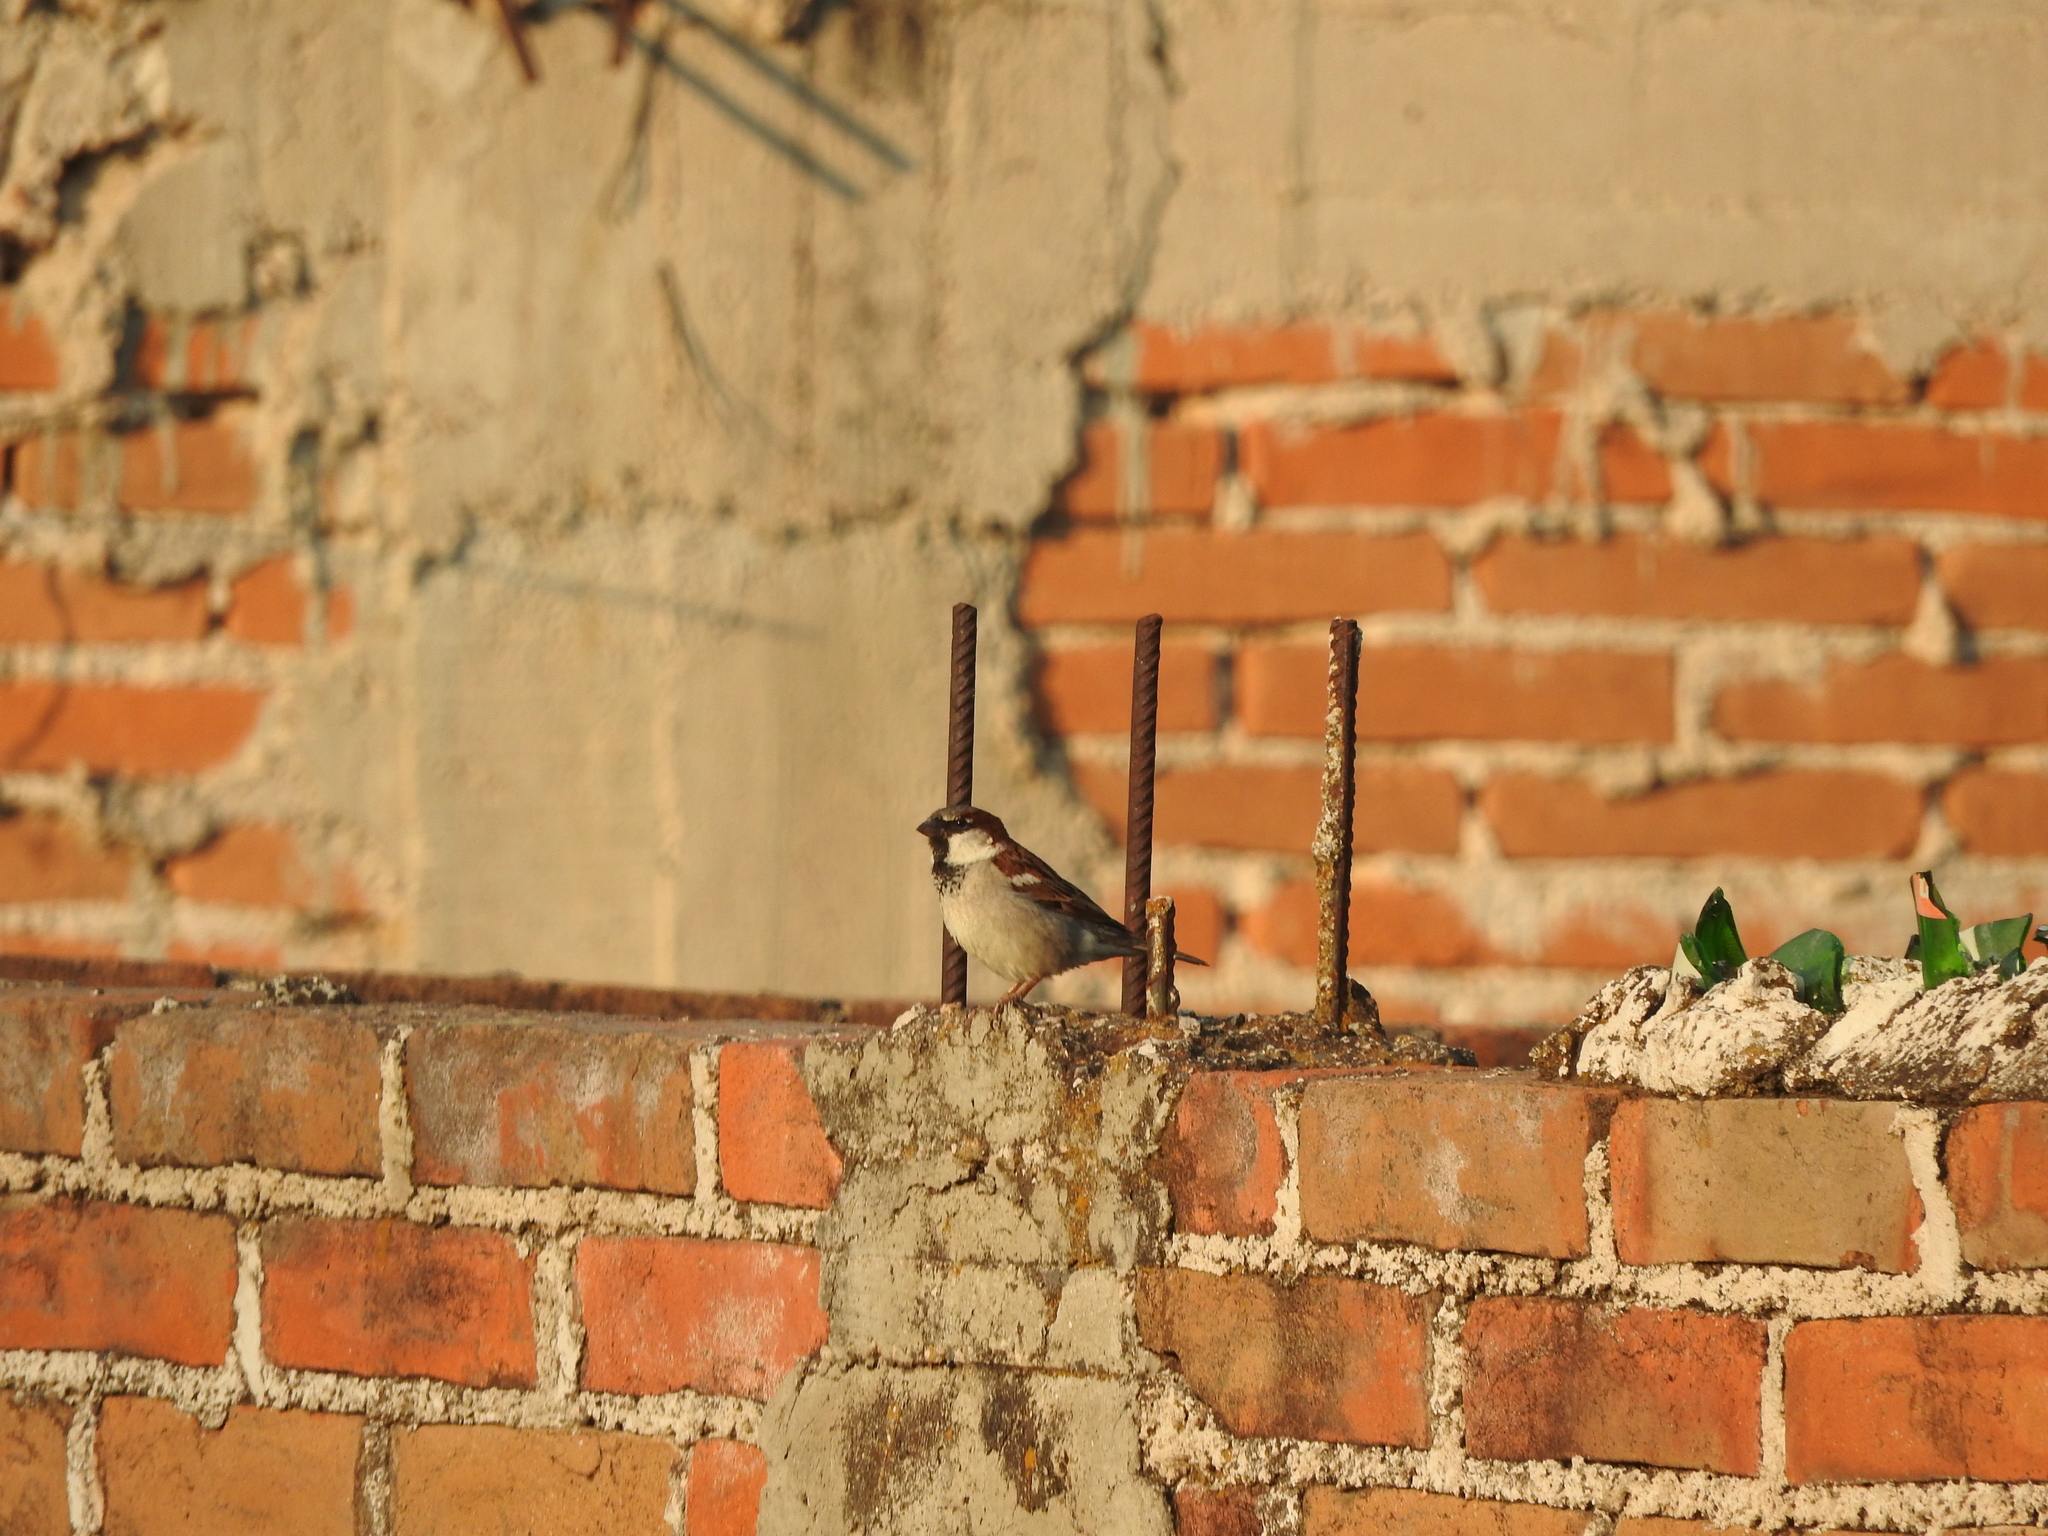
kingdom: Animalia
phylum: Chordata
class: Aves
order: Passeriformes
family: Passeridae
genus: Passer
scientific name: Passer domesticus
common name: House sparrow
